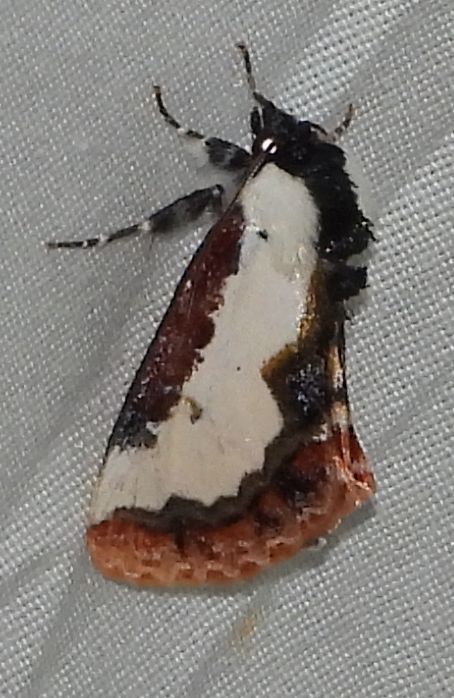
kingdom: Animalia
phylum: Arthropoda
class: Insecta
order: Lepidoptera
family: Noctuidae
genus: Eudryas
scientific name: Eudryas unio
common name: Pearly wood-nymph
